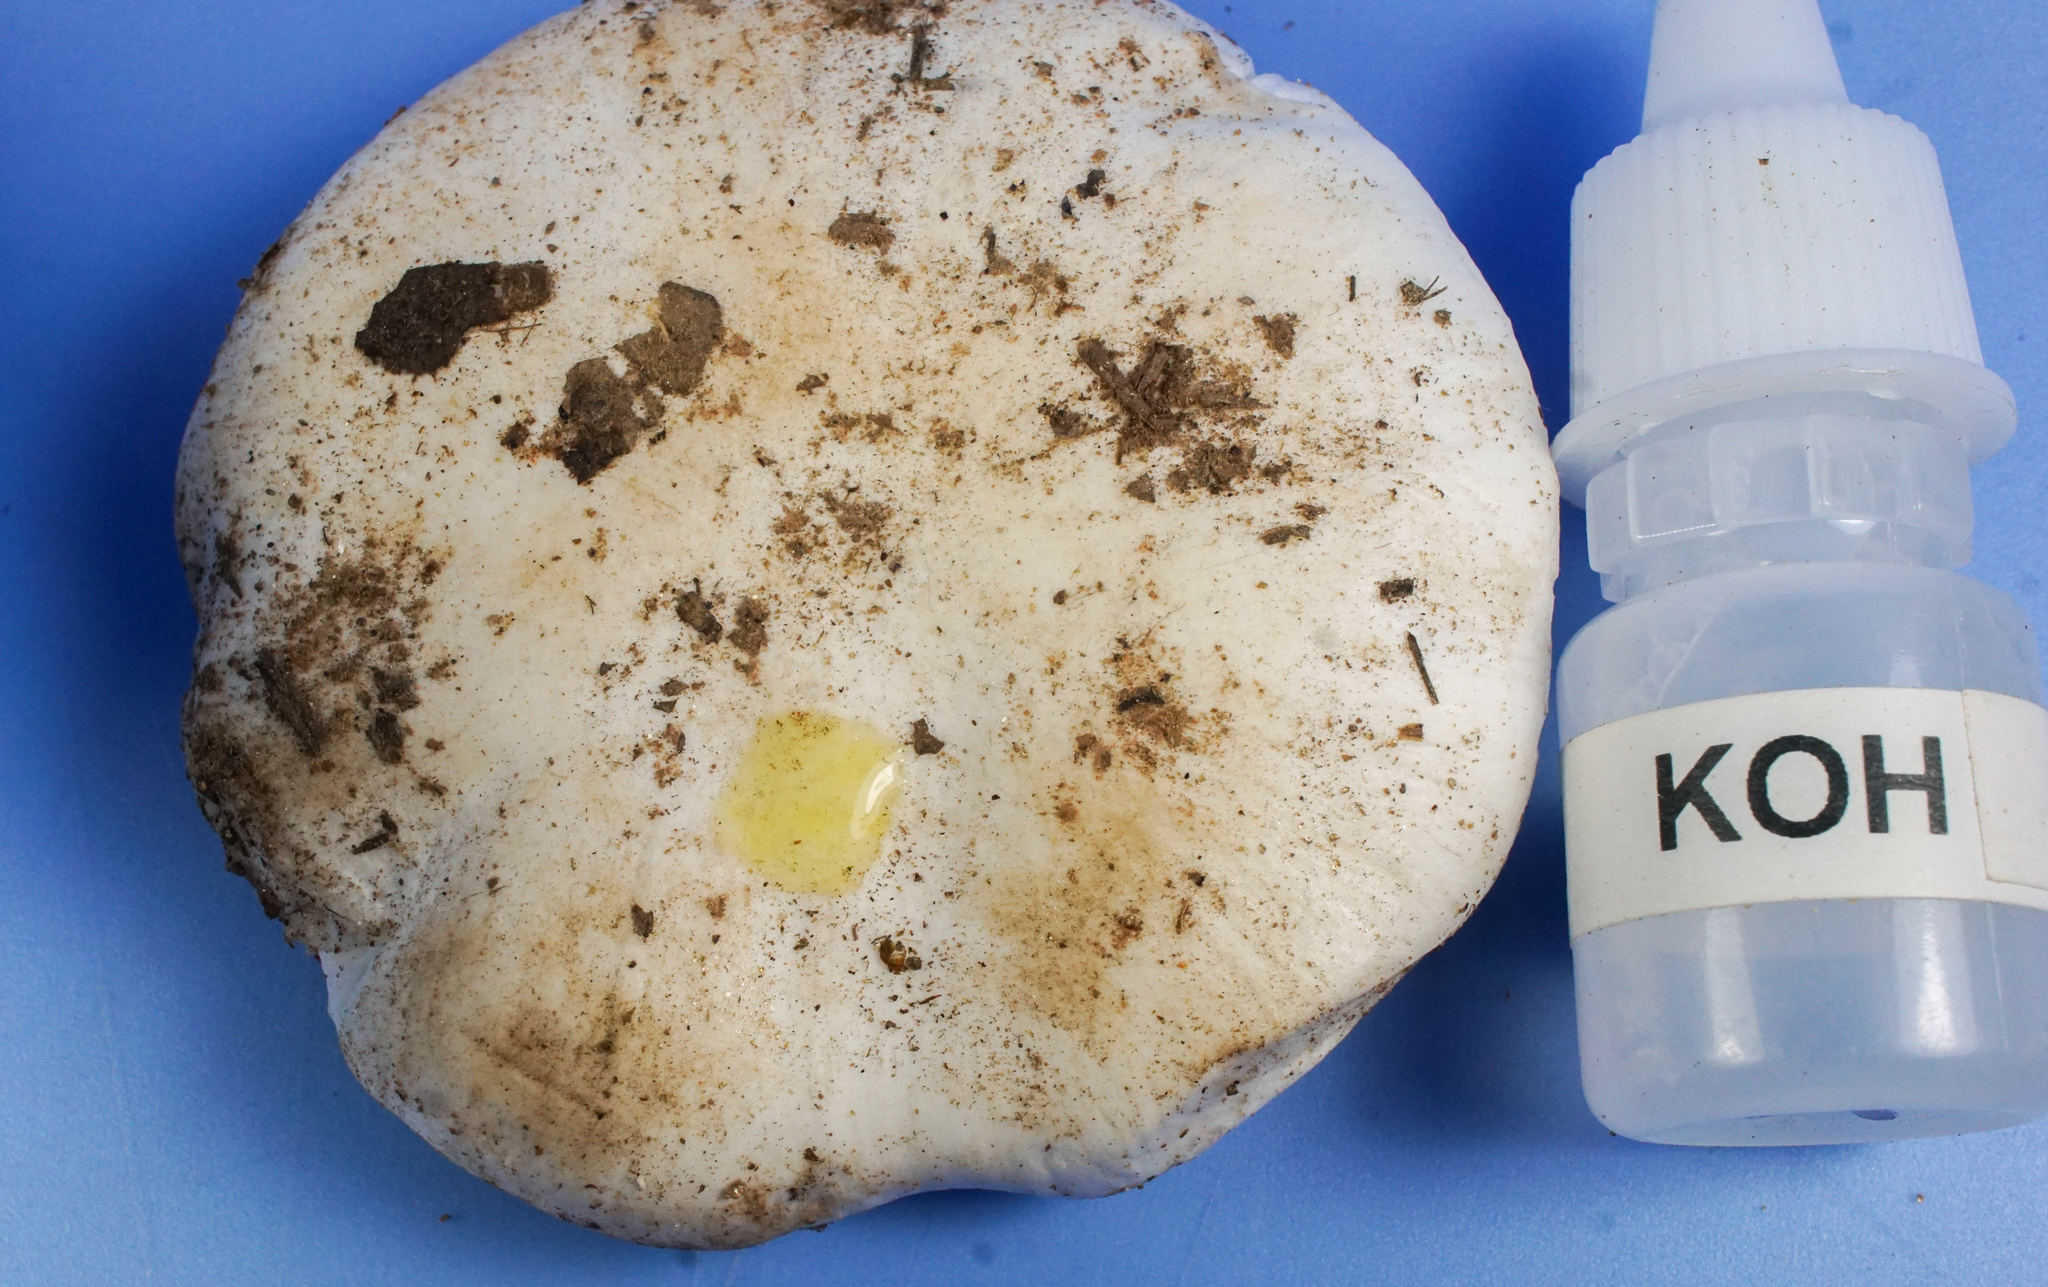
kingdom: Fungi
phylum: Basidiomycota
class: Agaricomycetes
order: Agaricales
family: Hygrophoraceae
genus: Hygrophorus
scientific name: Hygrophorus ponderatus
